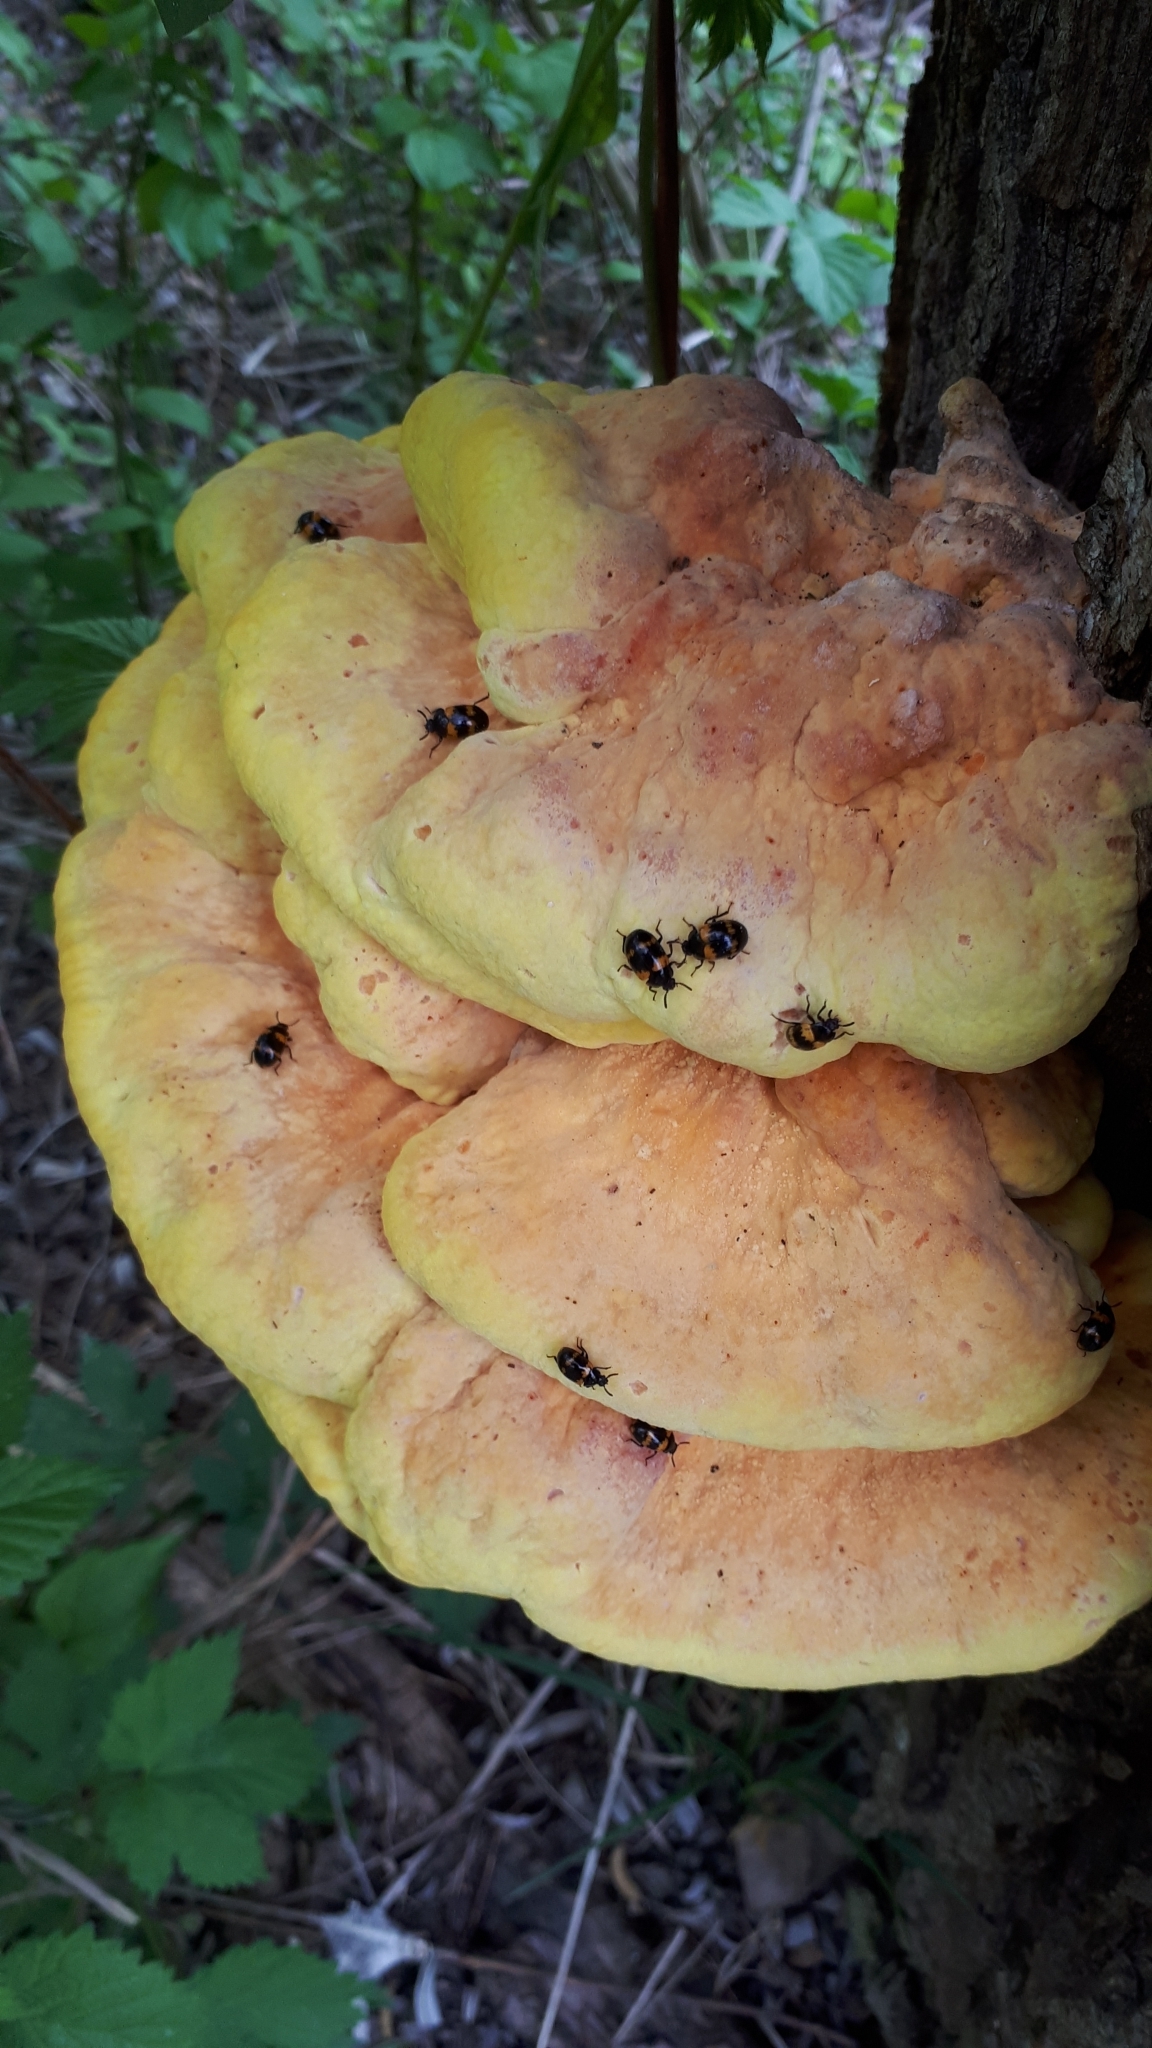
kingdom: Fungi
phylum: Basidiomycota
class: Agaricomycetes
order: Polyporales
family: Laetiporaceae
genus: Laetiporus
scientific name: Laetiporus sulphureus
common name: Chicken of the woods
